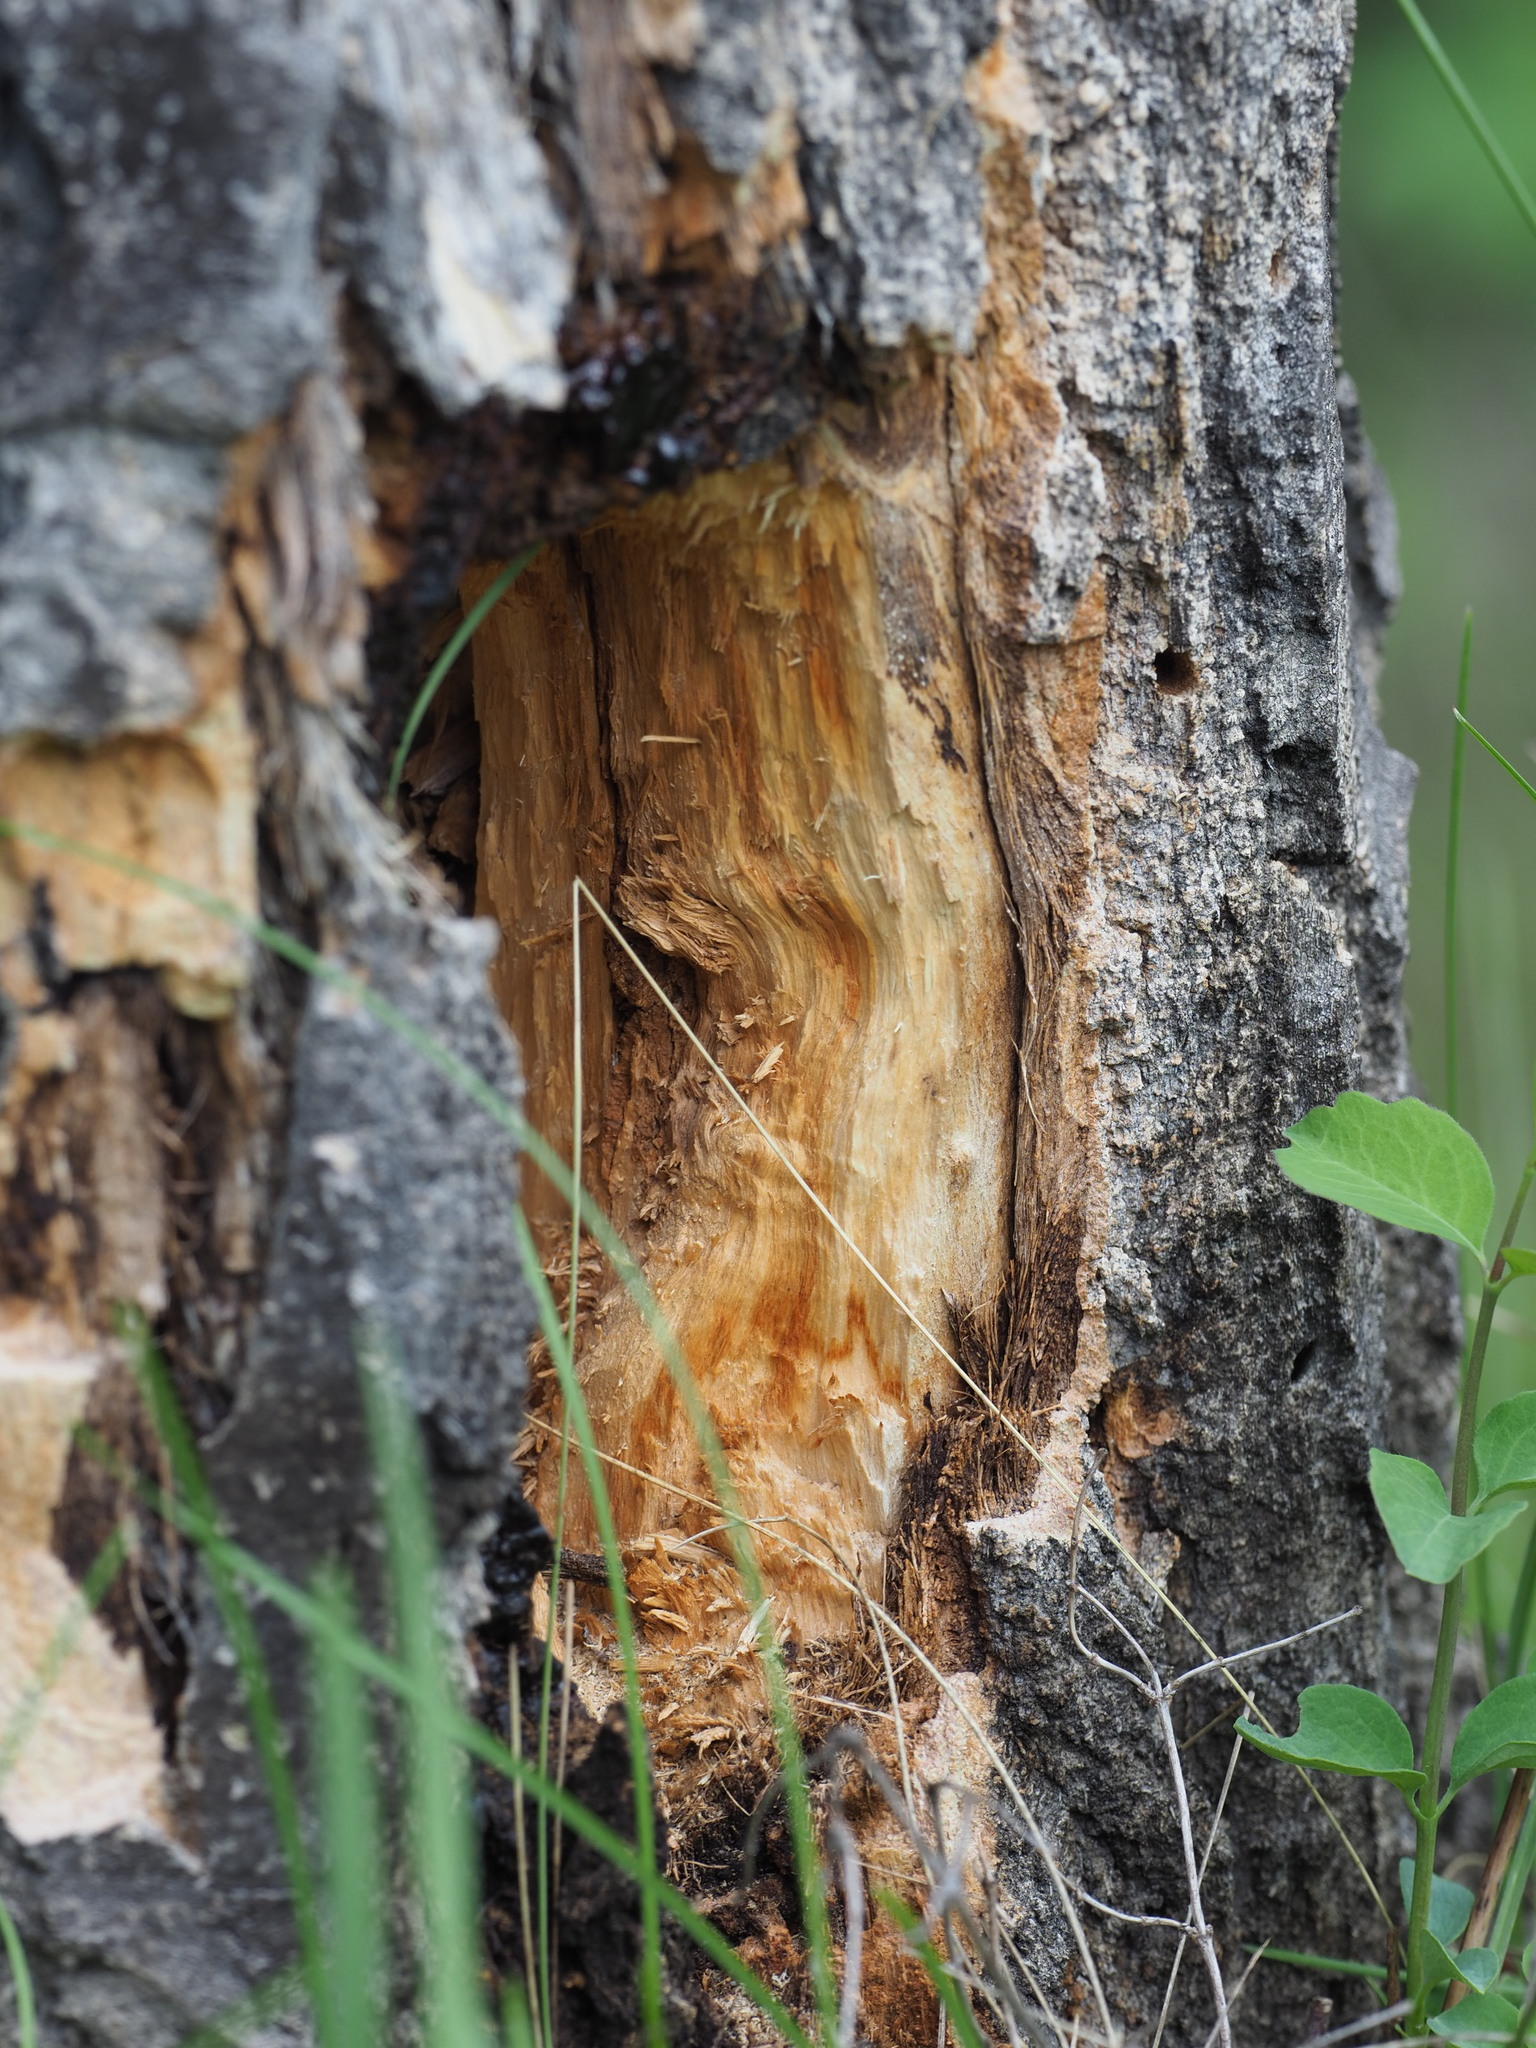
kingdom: Animalia
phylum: Chordata
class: Aves
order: Piciformes
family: Picidae
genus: Dryocopus
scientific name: Dryocopus pileatus
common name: Pileated woodpecker
